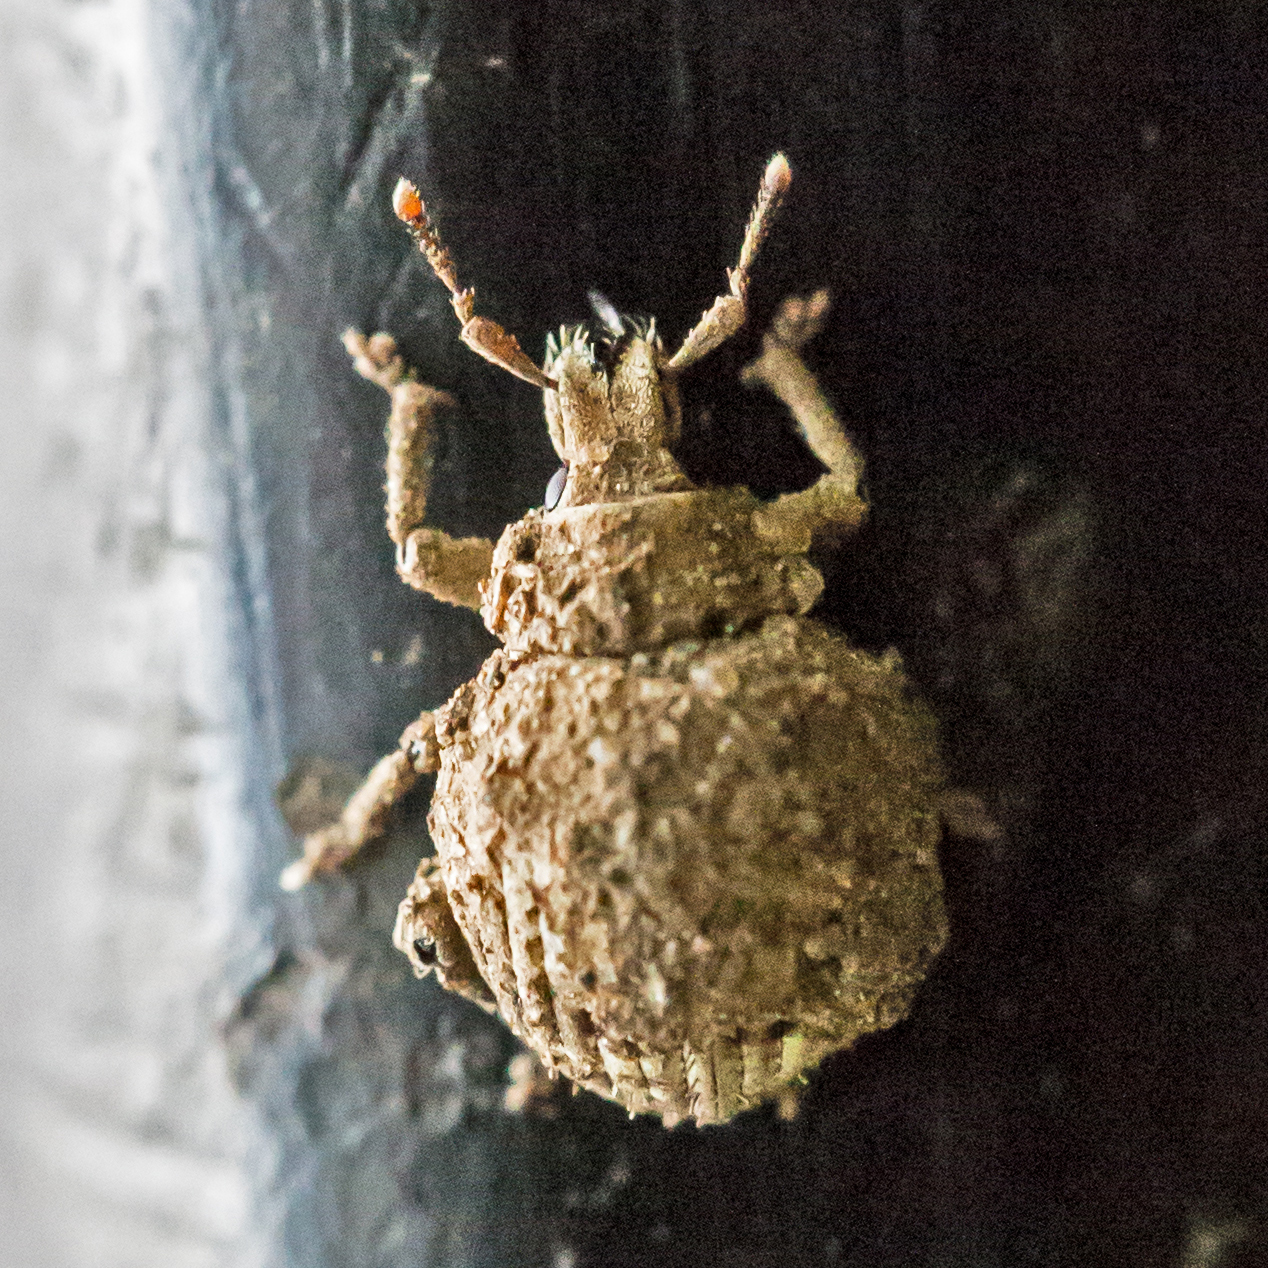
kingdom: Animalia
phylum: Arthropoda
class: Insecta
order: Coleoptera
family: Curculionidae
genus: Pseudocneorhinus
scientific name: Pseudocneorhinus bifasciatus
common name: Two-banded japanese weevil
